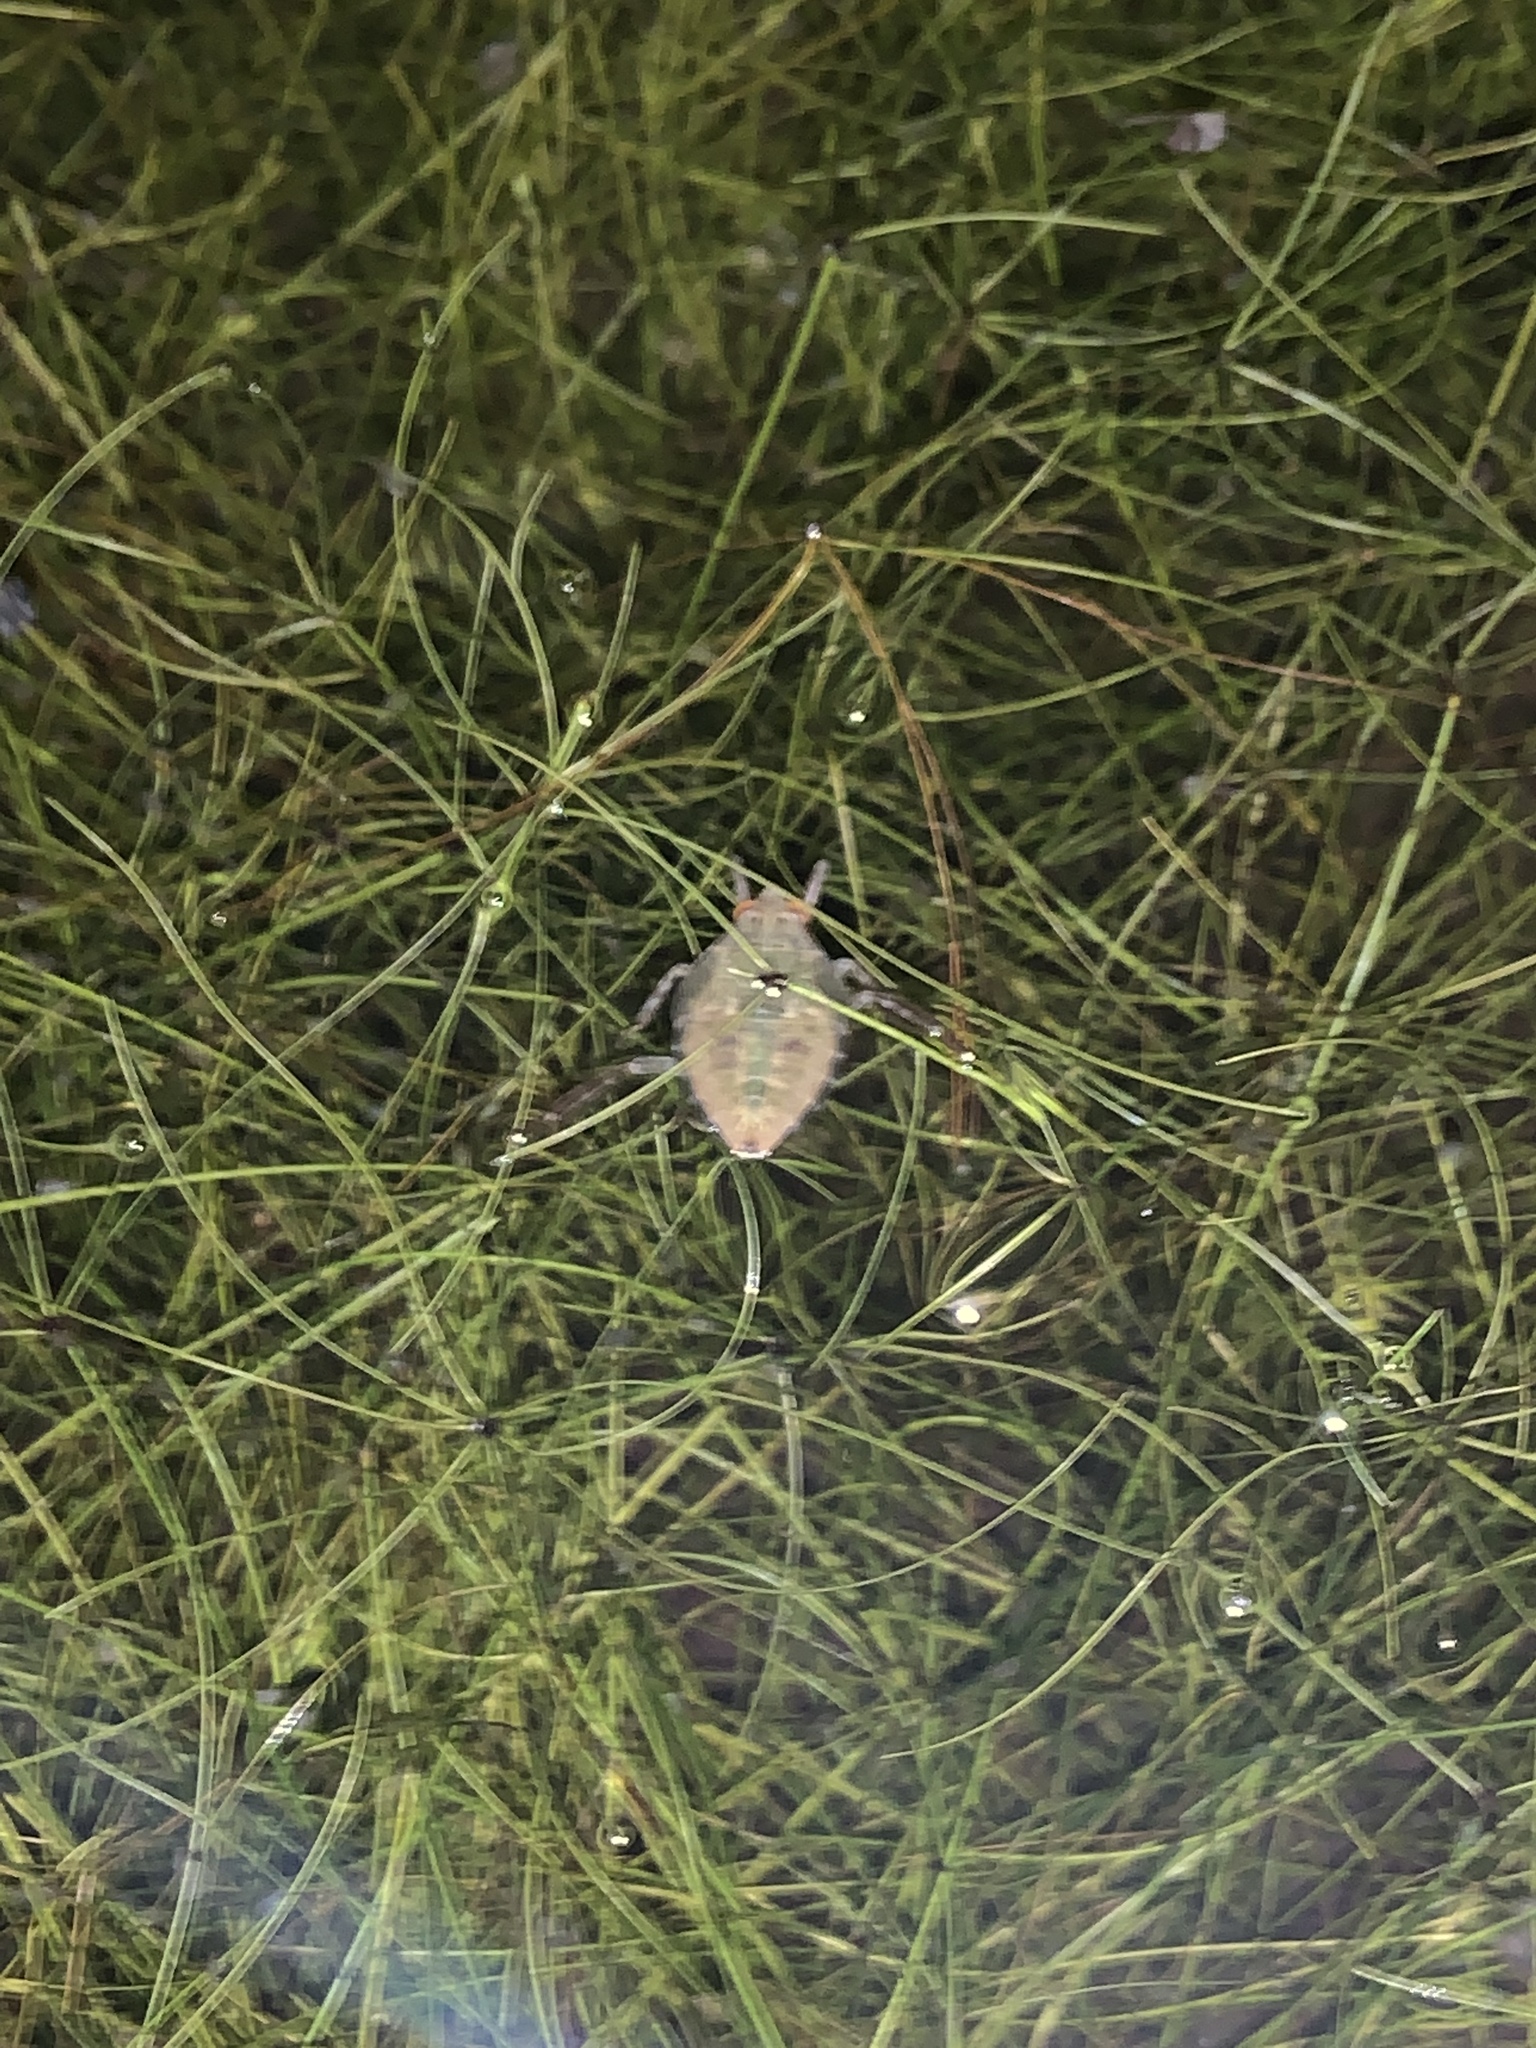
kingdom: Animalia
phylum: Arthropoda
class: Insecta
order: Hemiptera
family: Belostomatidae
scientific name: Belostomatidae
